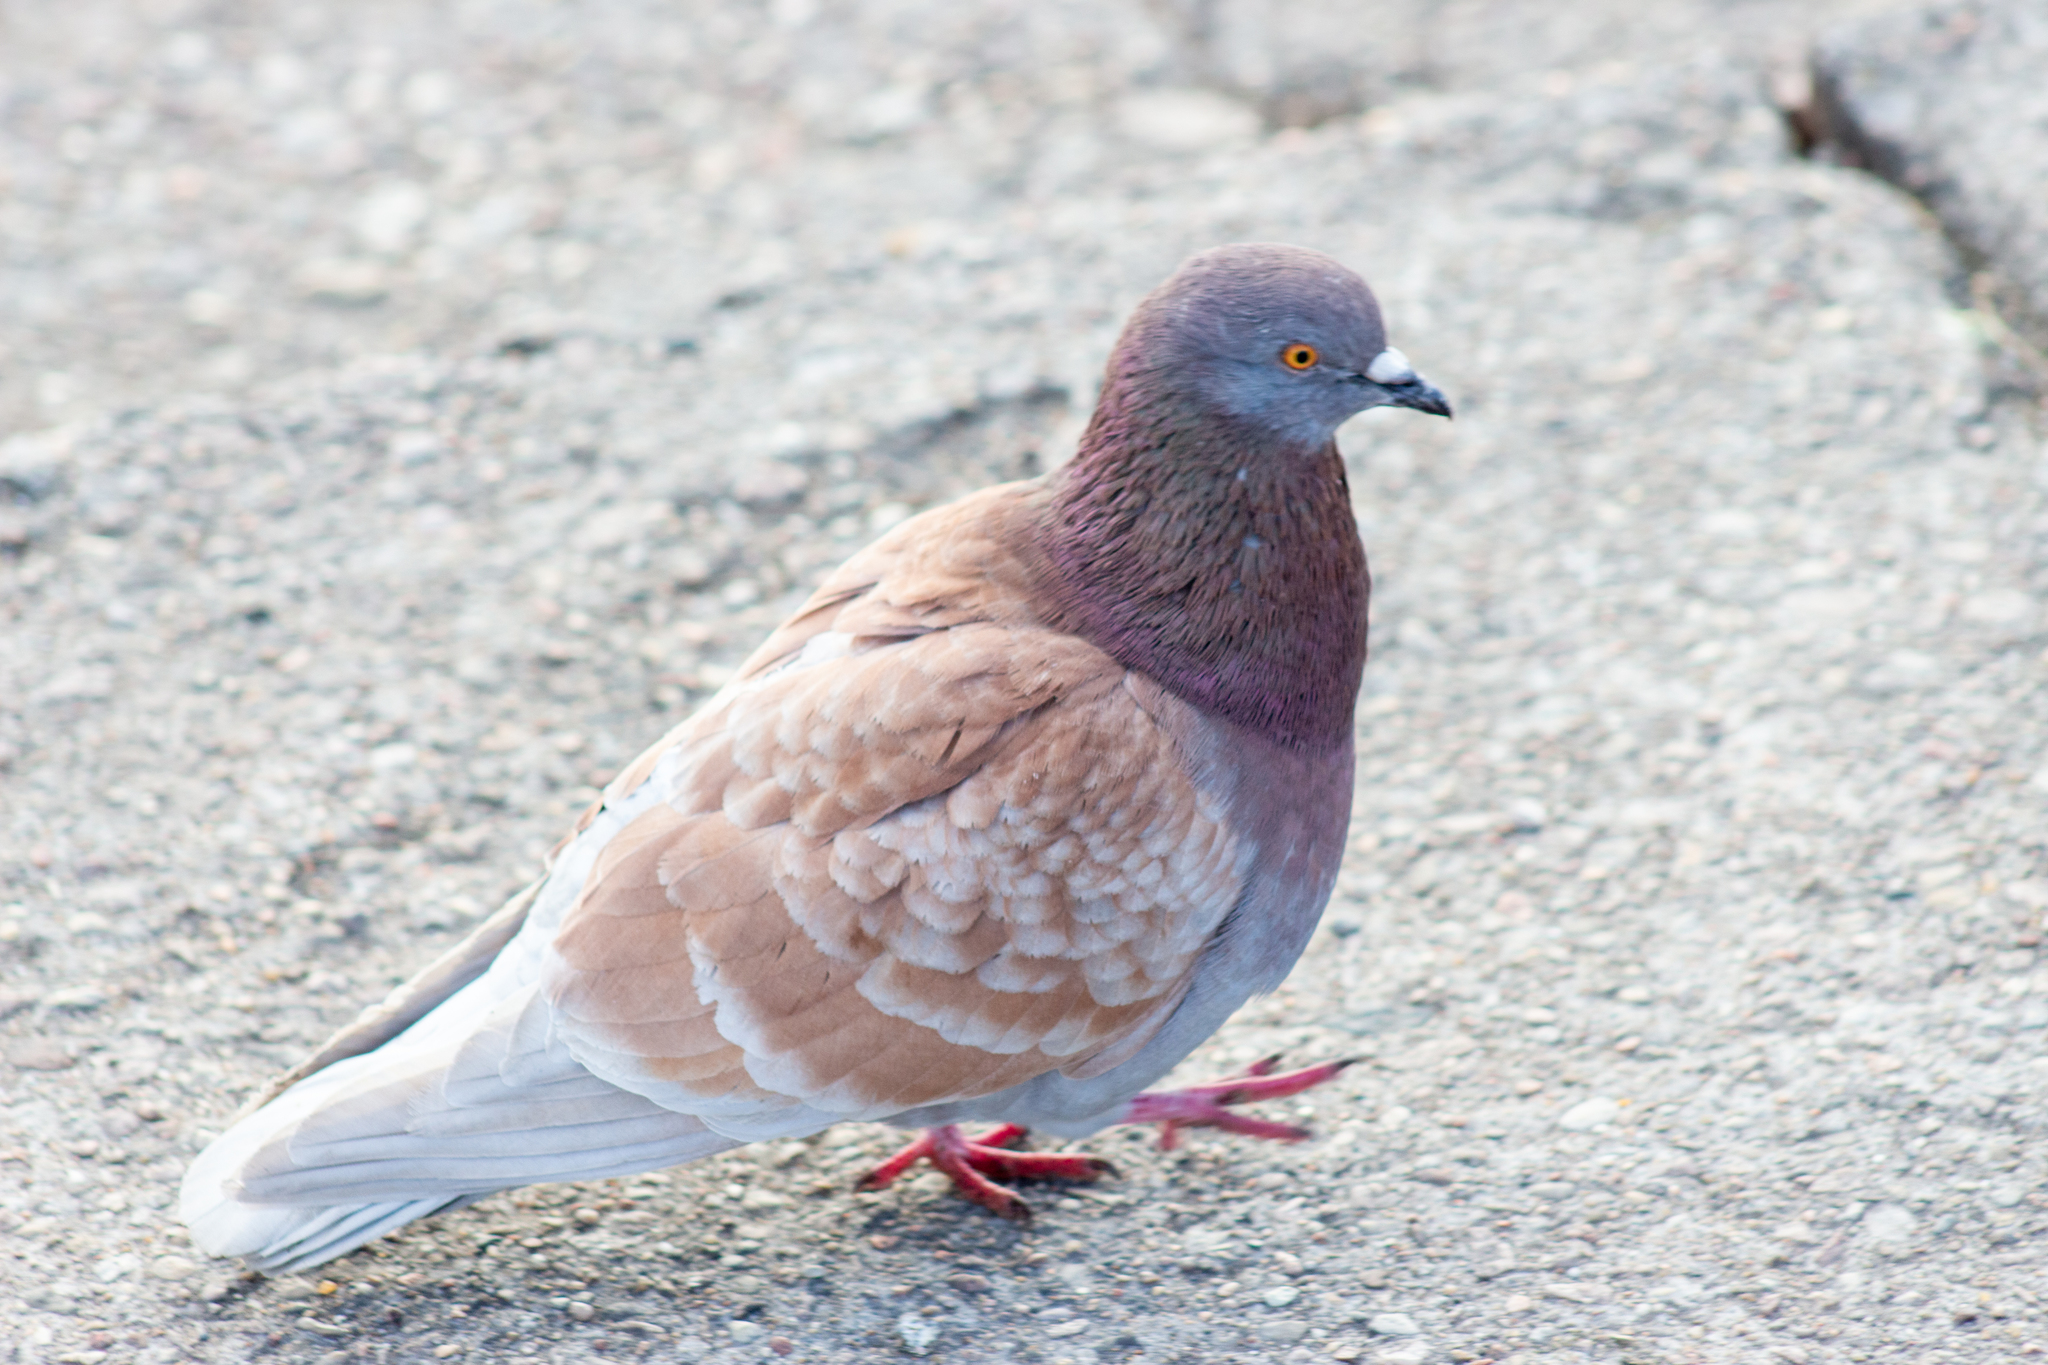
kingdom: Animalia
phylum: Chordata
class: Aves
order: Columbiformes
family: Columbidae
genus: Columba
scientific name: Columba livia
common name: Rock pigeon
